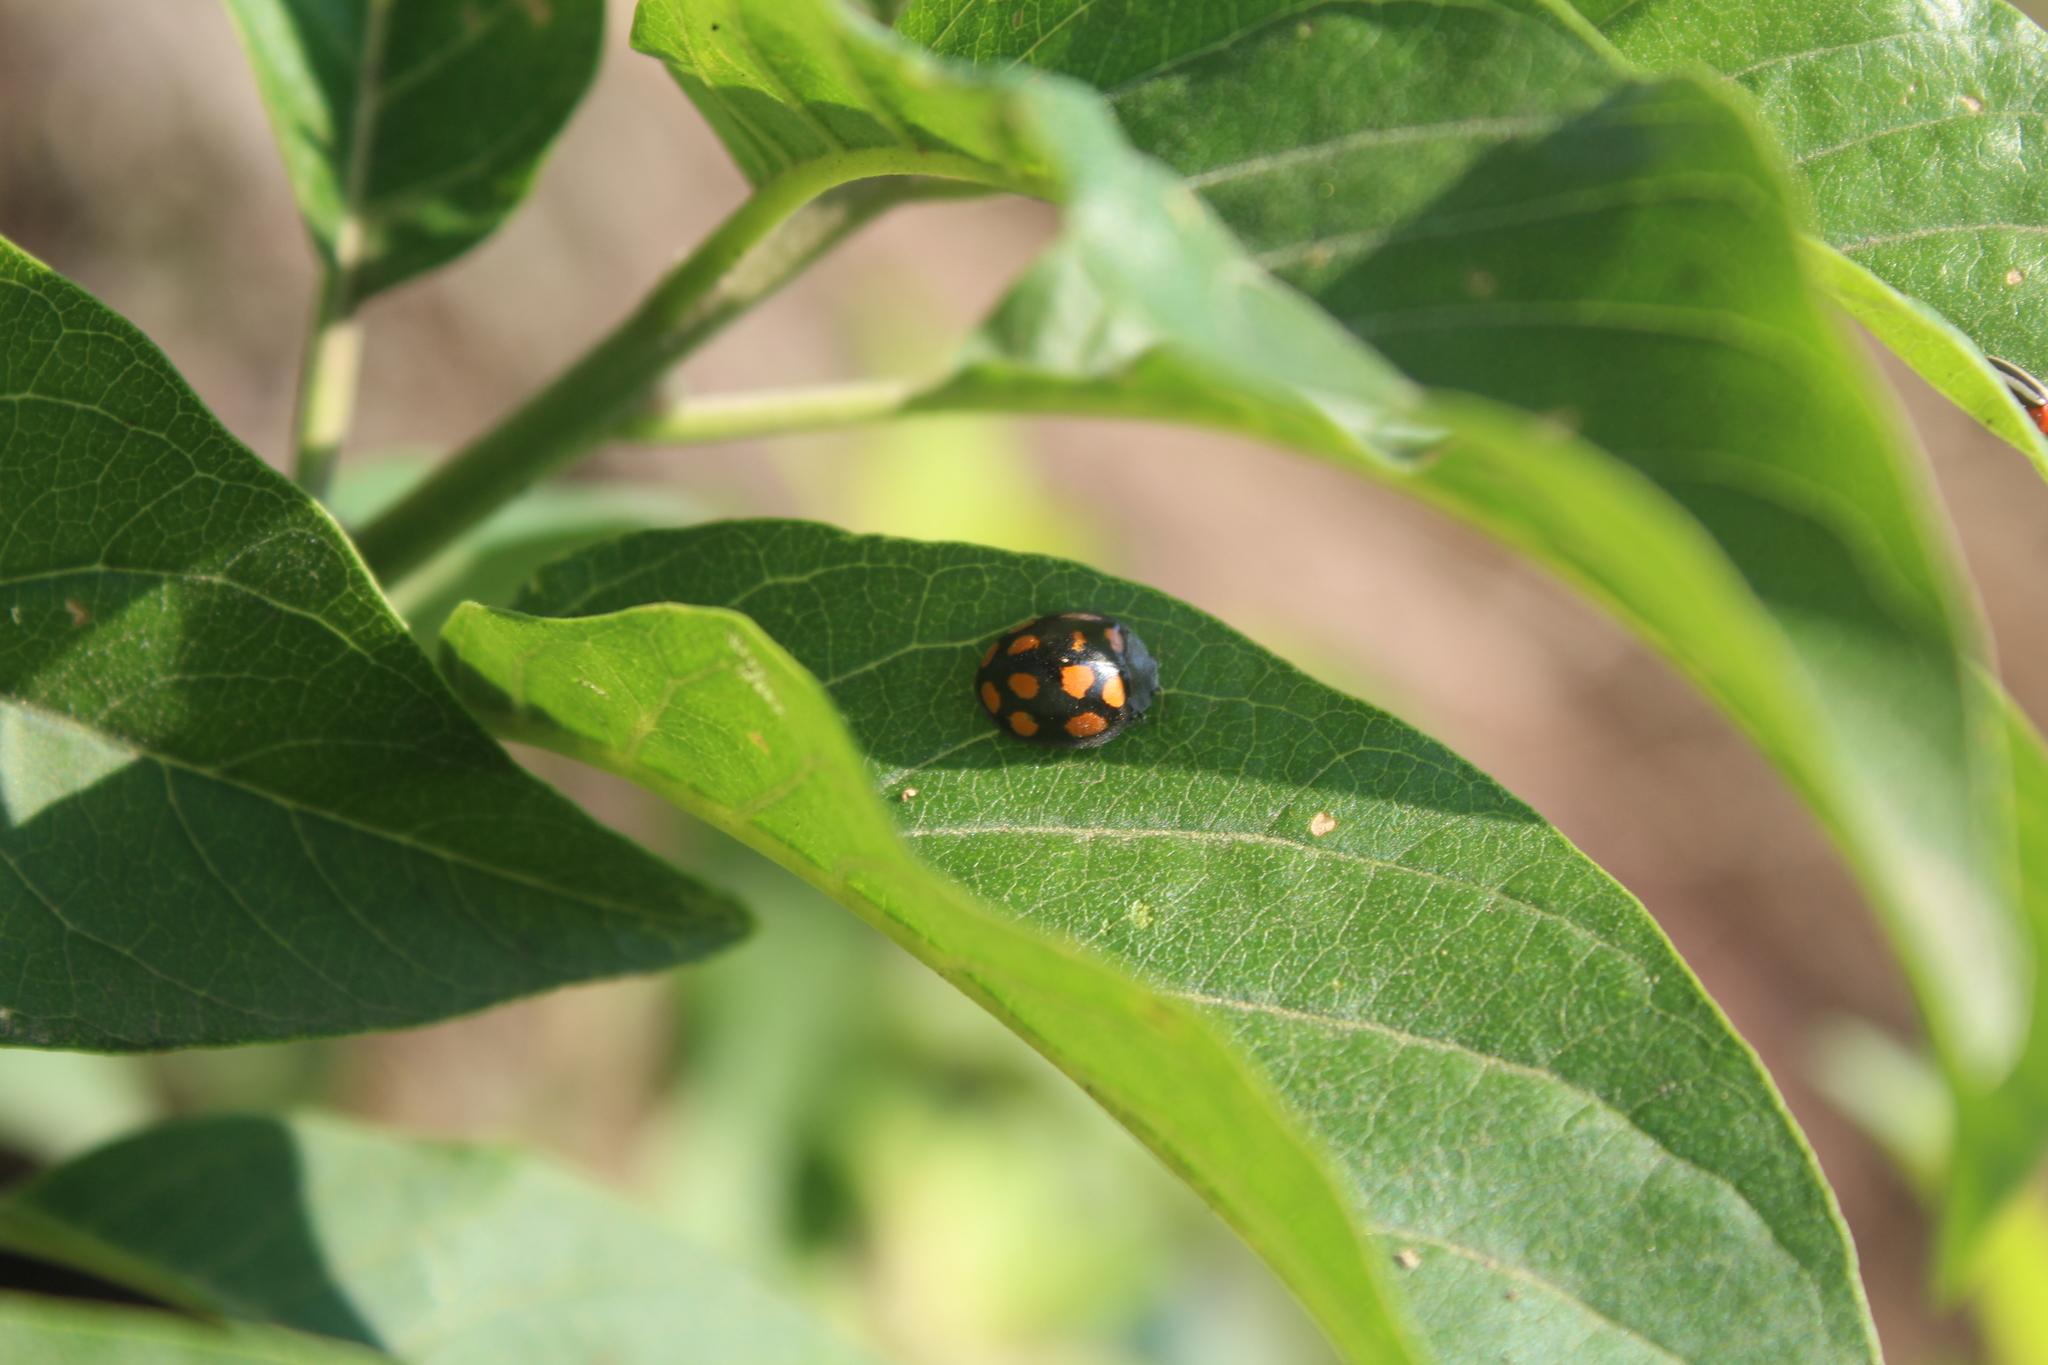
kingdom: Animalia
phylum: Arthropoda
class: Insecta
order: Coleoptera
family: Coccinellidae
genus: Epilachna
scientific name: Epilachna
